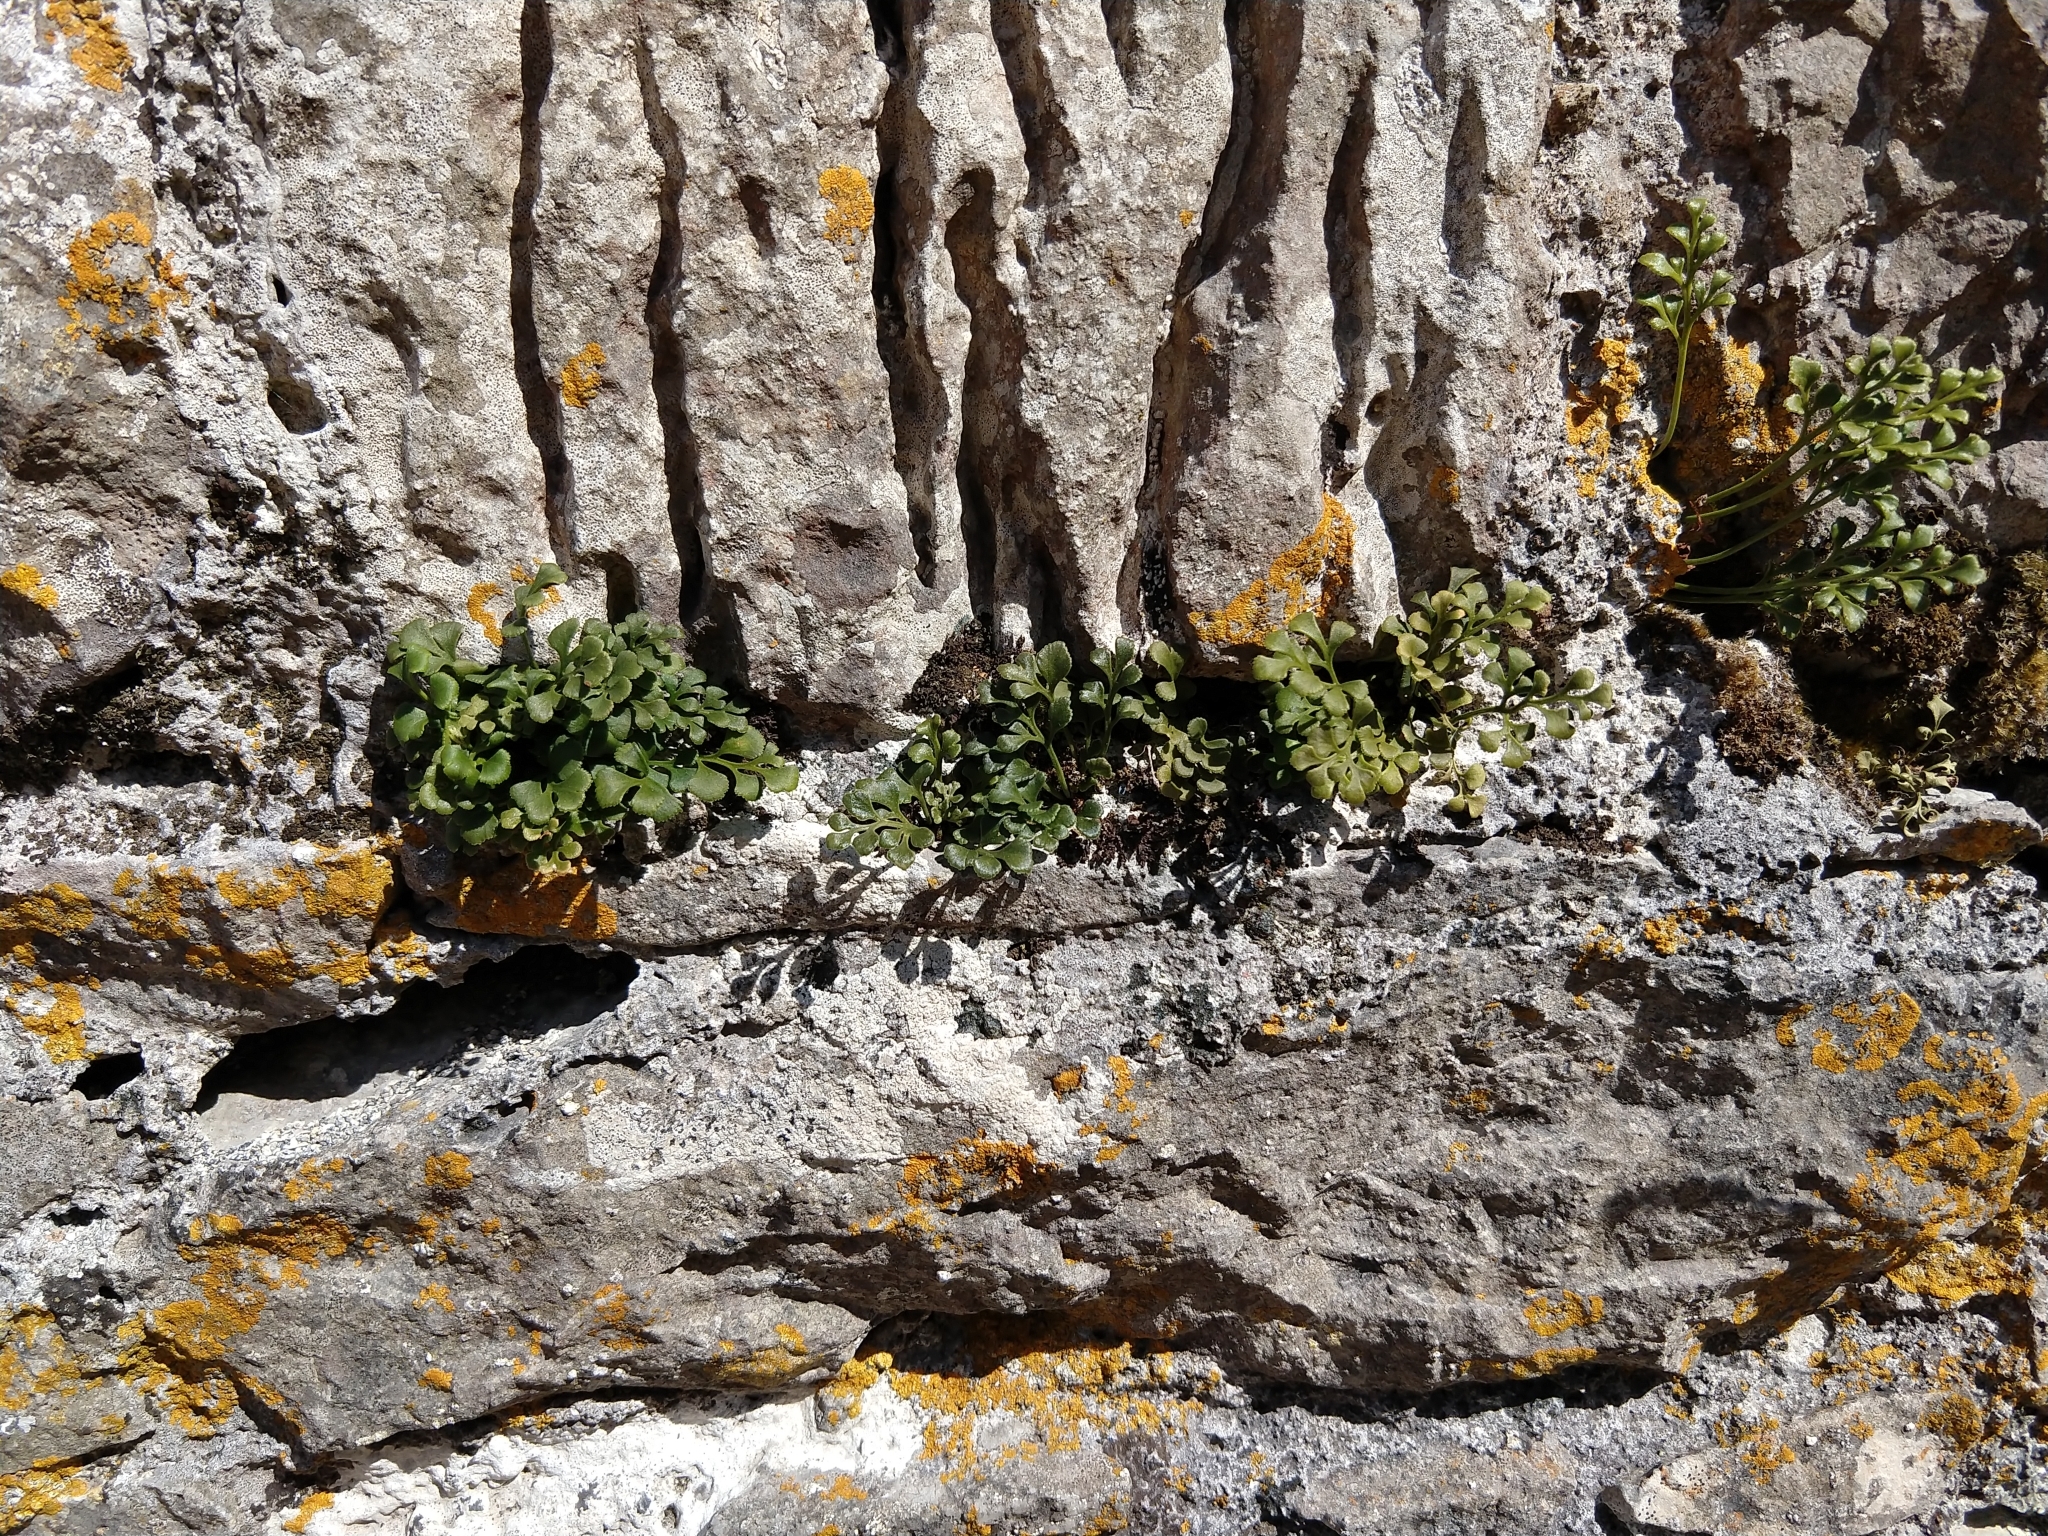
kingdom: Plantae
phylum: Tracheophyta
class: Polypodiopsida
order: Polypodiales
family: Aspleniaceae
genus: Asplenium
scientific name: Asplenium ruta-muraria
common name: Wall-rue
